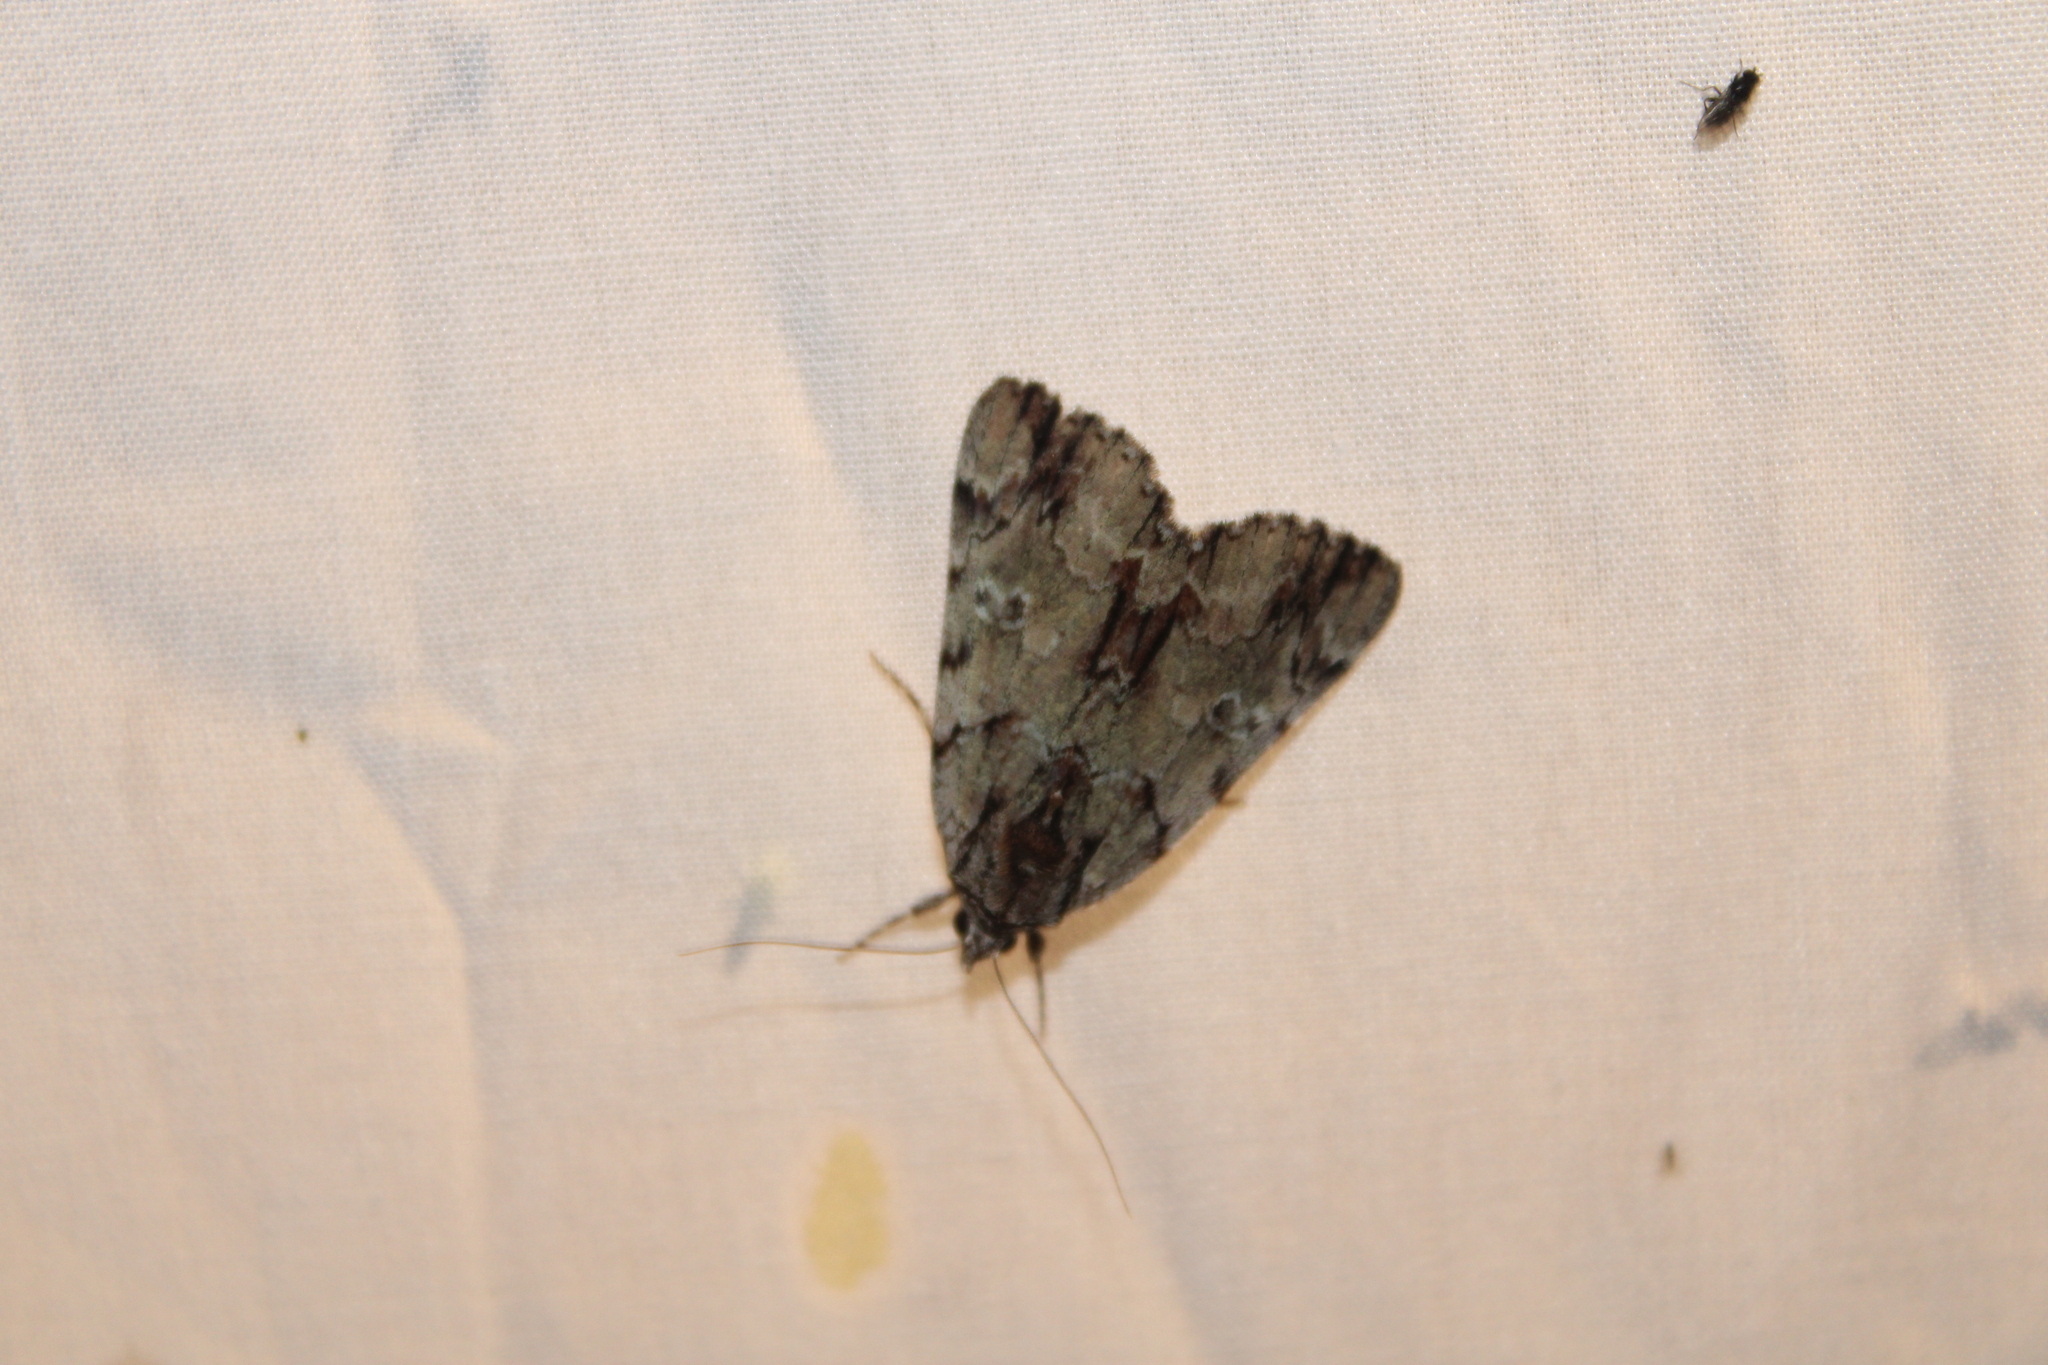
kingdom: Animalia
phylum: Arthropoda
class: Insecta
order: Lepidoptera
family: Erebidae
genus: Catocala
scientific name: Catocala praeclara
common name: Praeclara underwing
